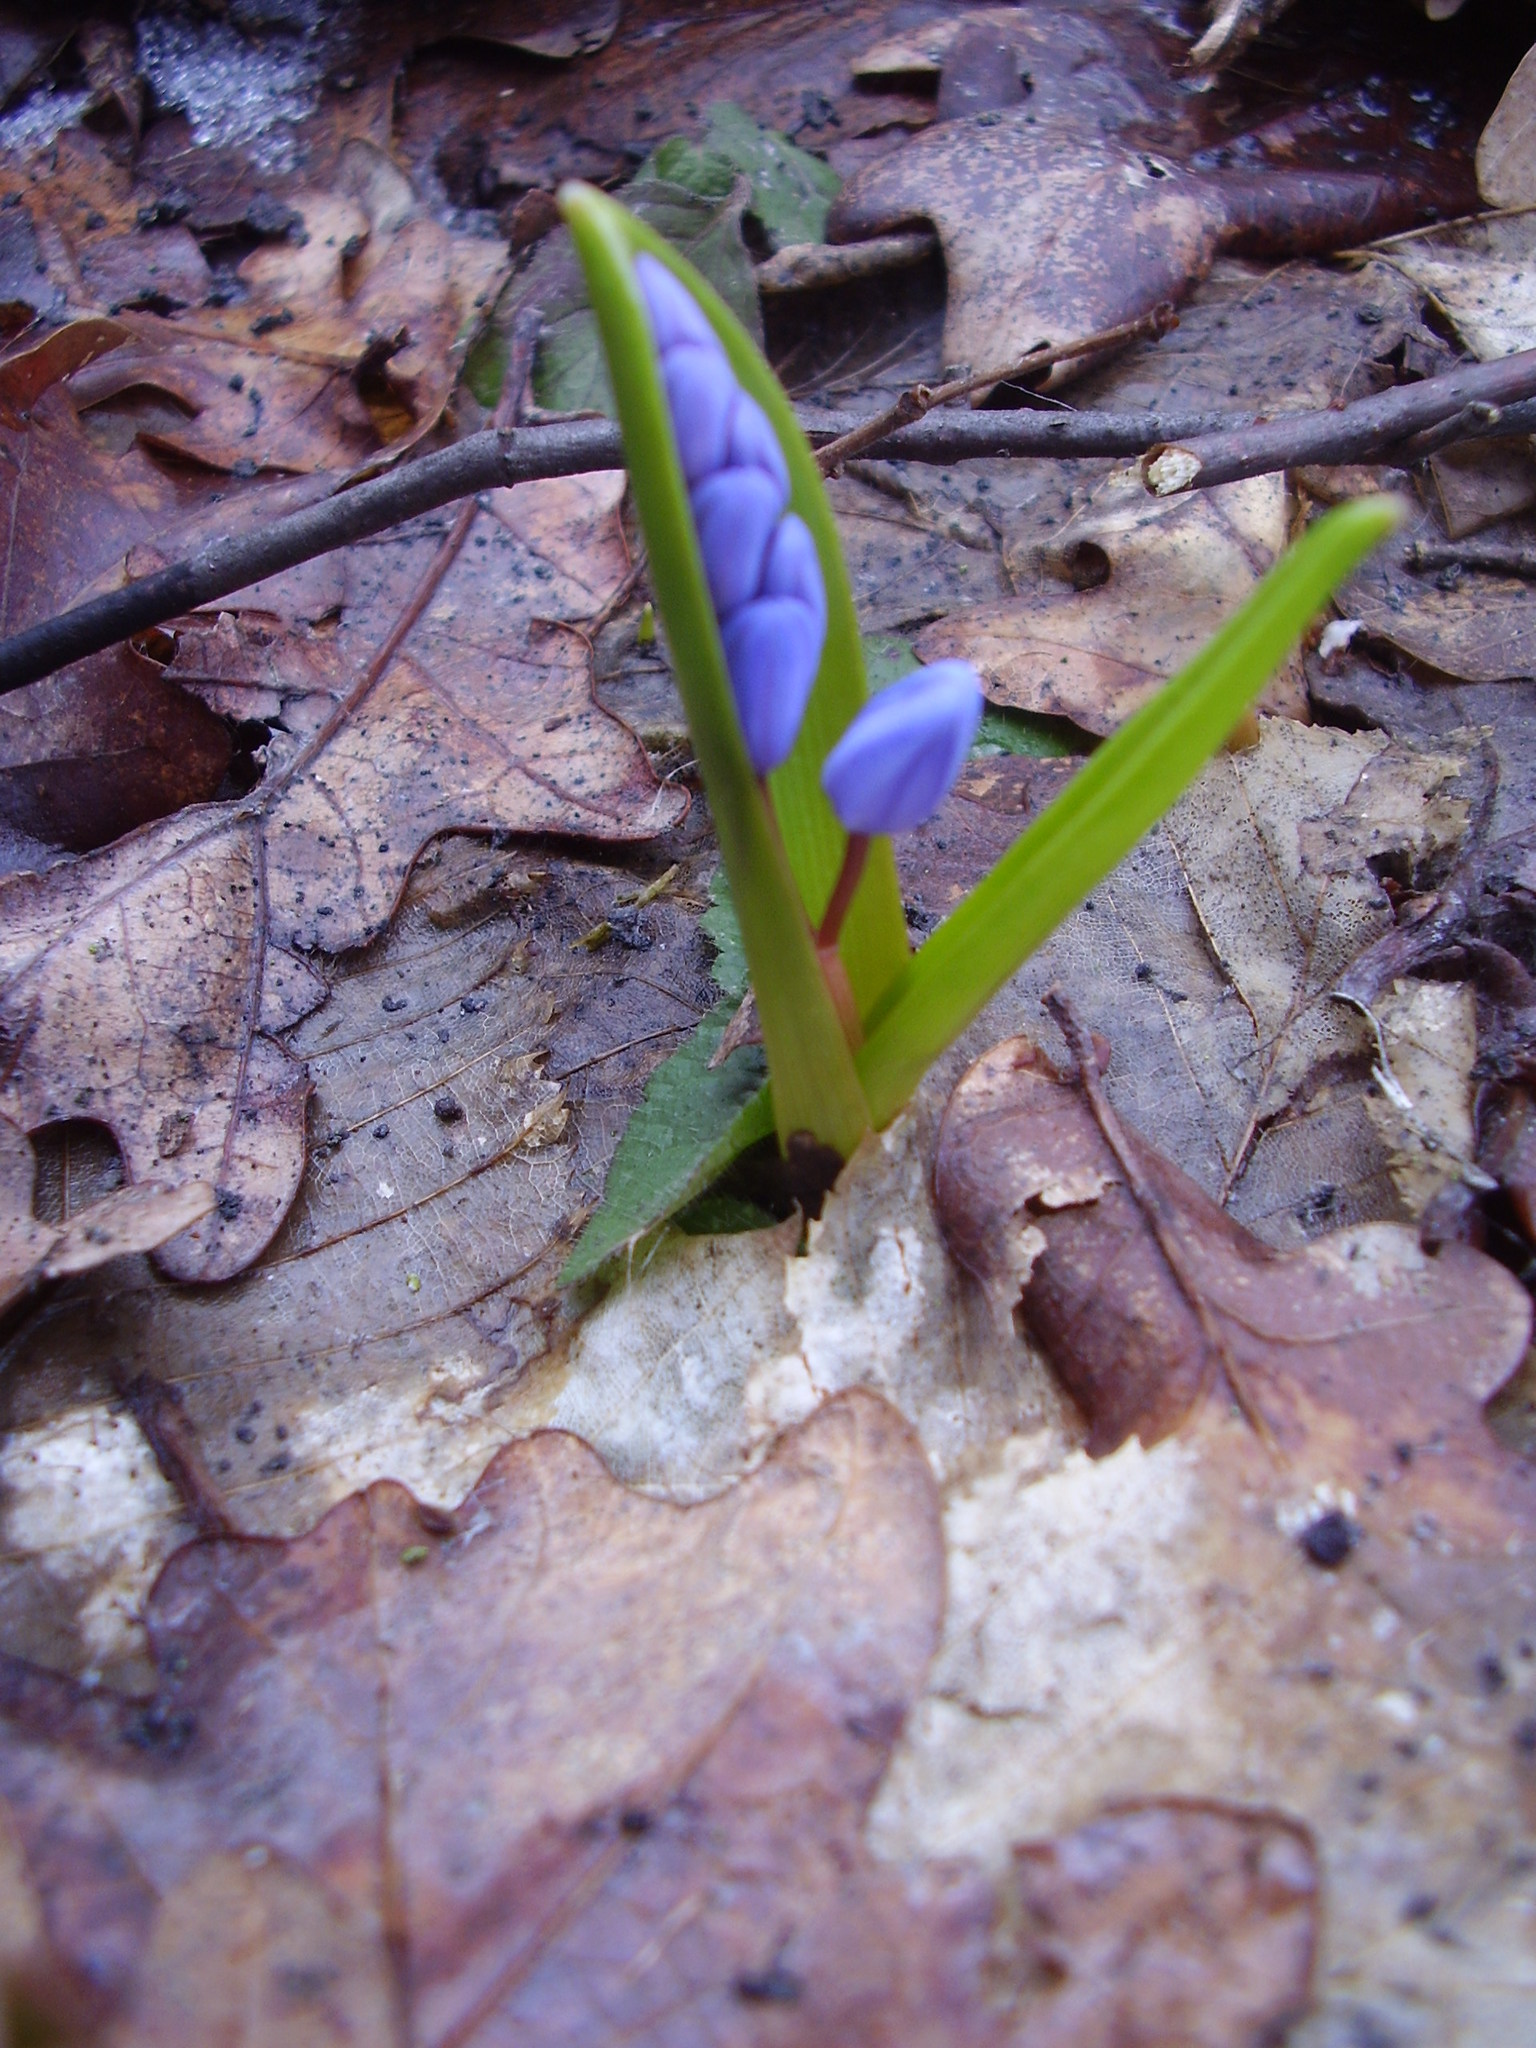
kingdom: Plantae
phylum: Tracheophyta
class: Liliopsida
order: Asparagales
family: Asparagaceae
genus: Scilla
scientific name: Scilla bifolia
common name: Alpine squill
